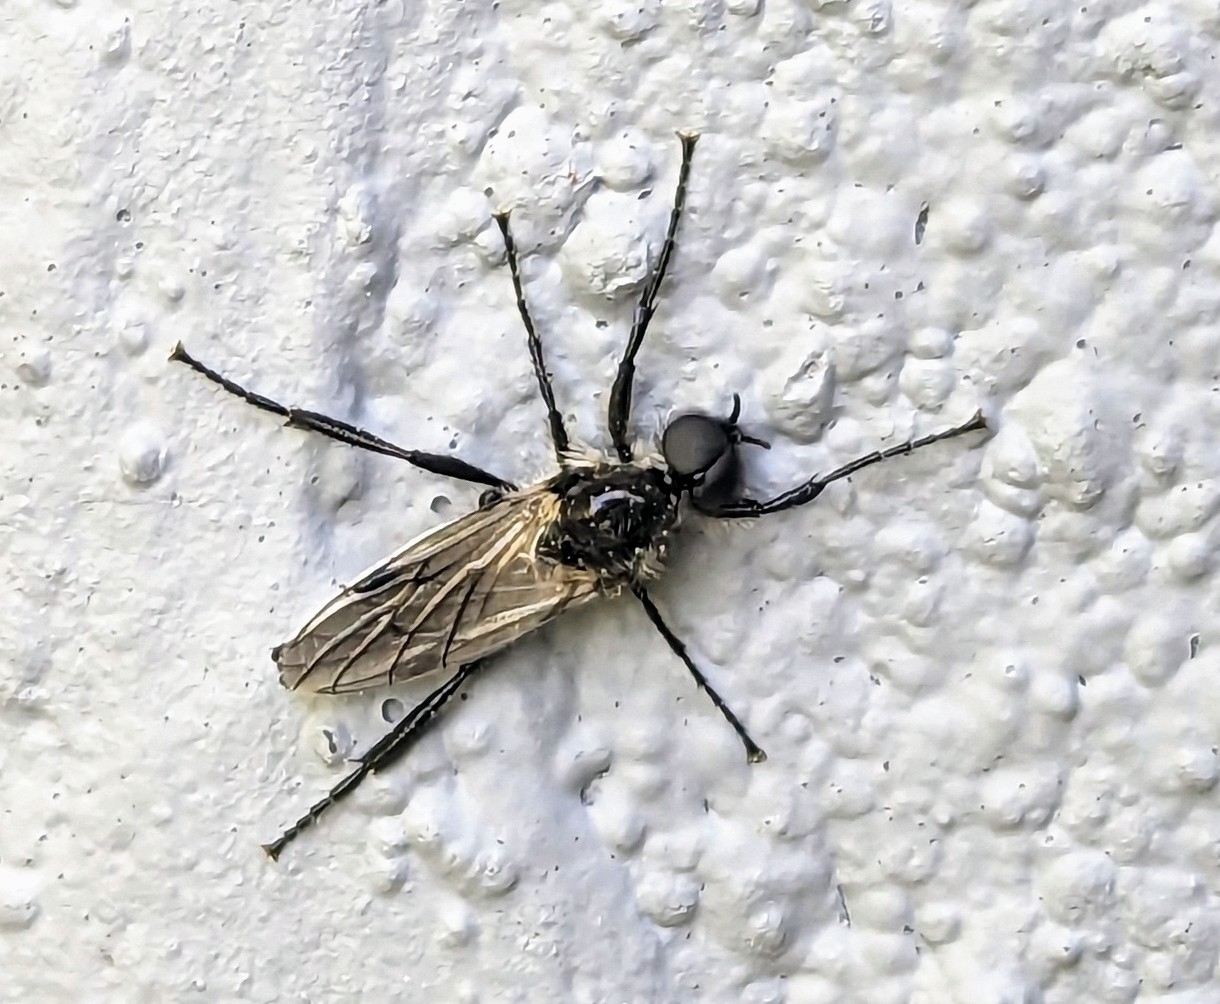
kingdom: Animalia
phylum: Arthropoda
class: Insecta
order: Diptera
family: Bibionidae
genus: Bibio
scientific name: Bibio albipennis
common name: White-winged march fly
